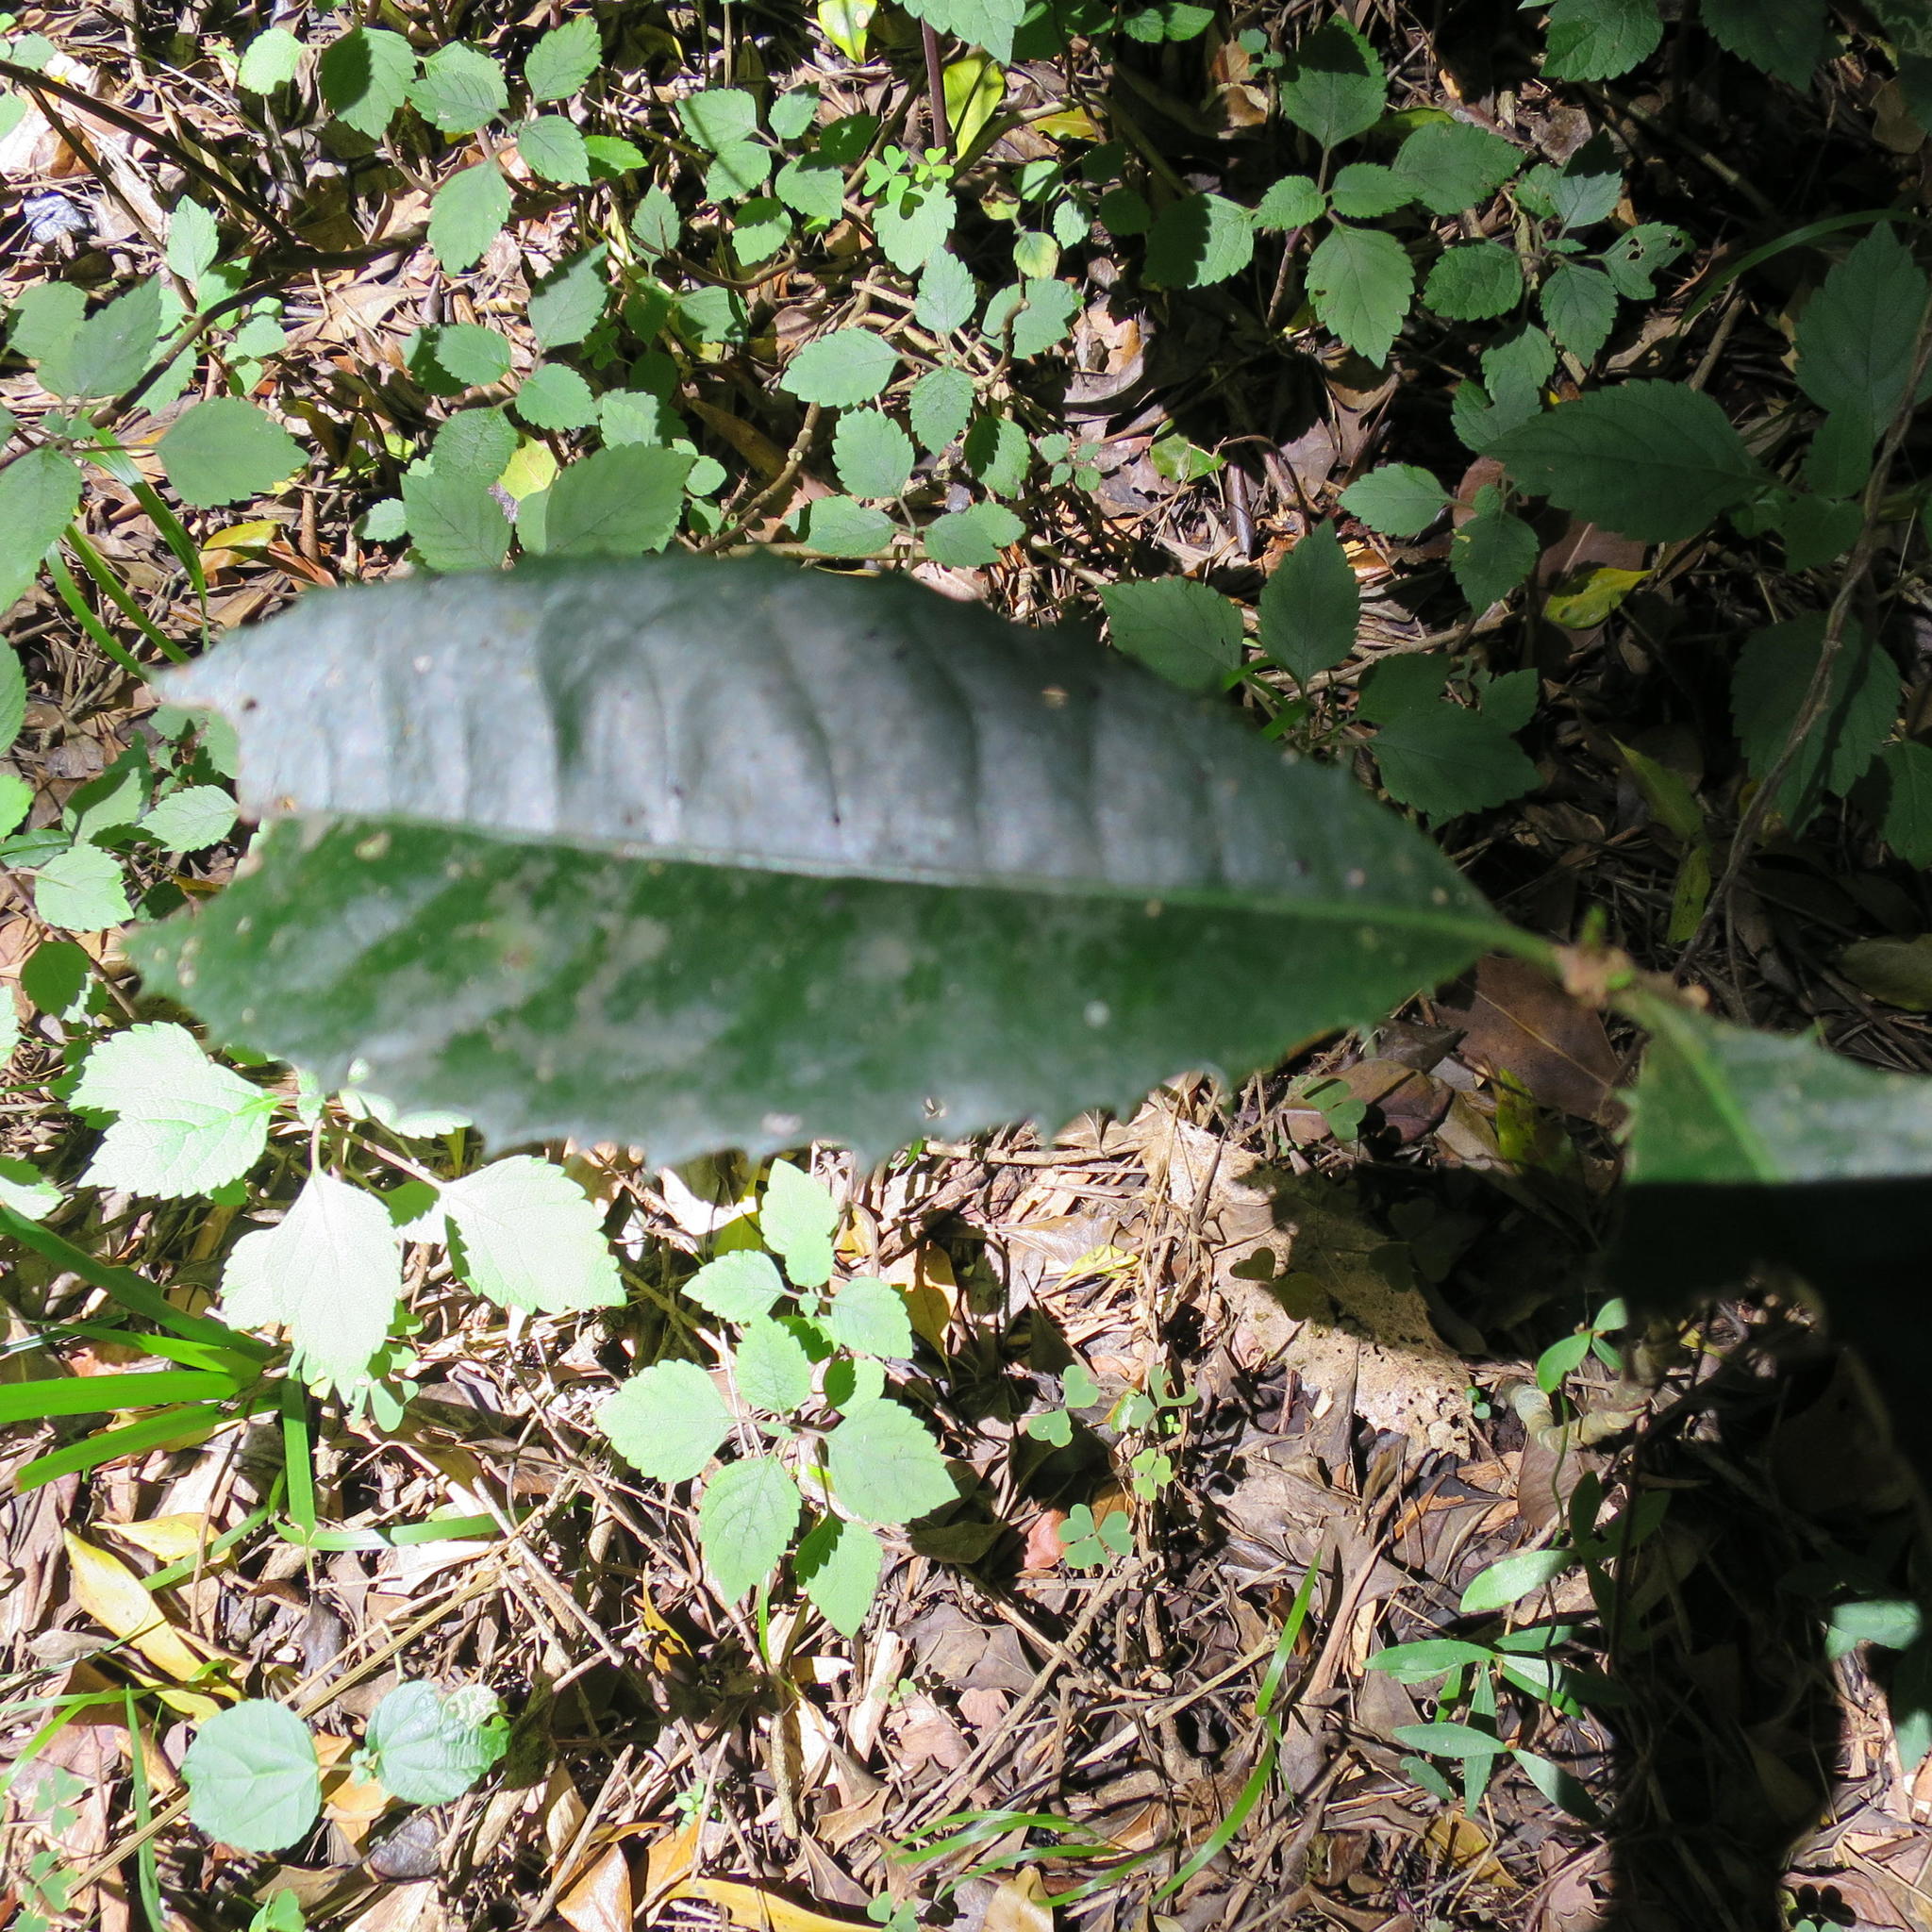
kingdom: Plantae
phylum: Tracheophyta
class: Magnoliopsida
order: Celastrales
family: Celastraceae
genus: Elaeodendron
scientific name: Elaeodendron croceum
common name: Saffron
